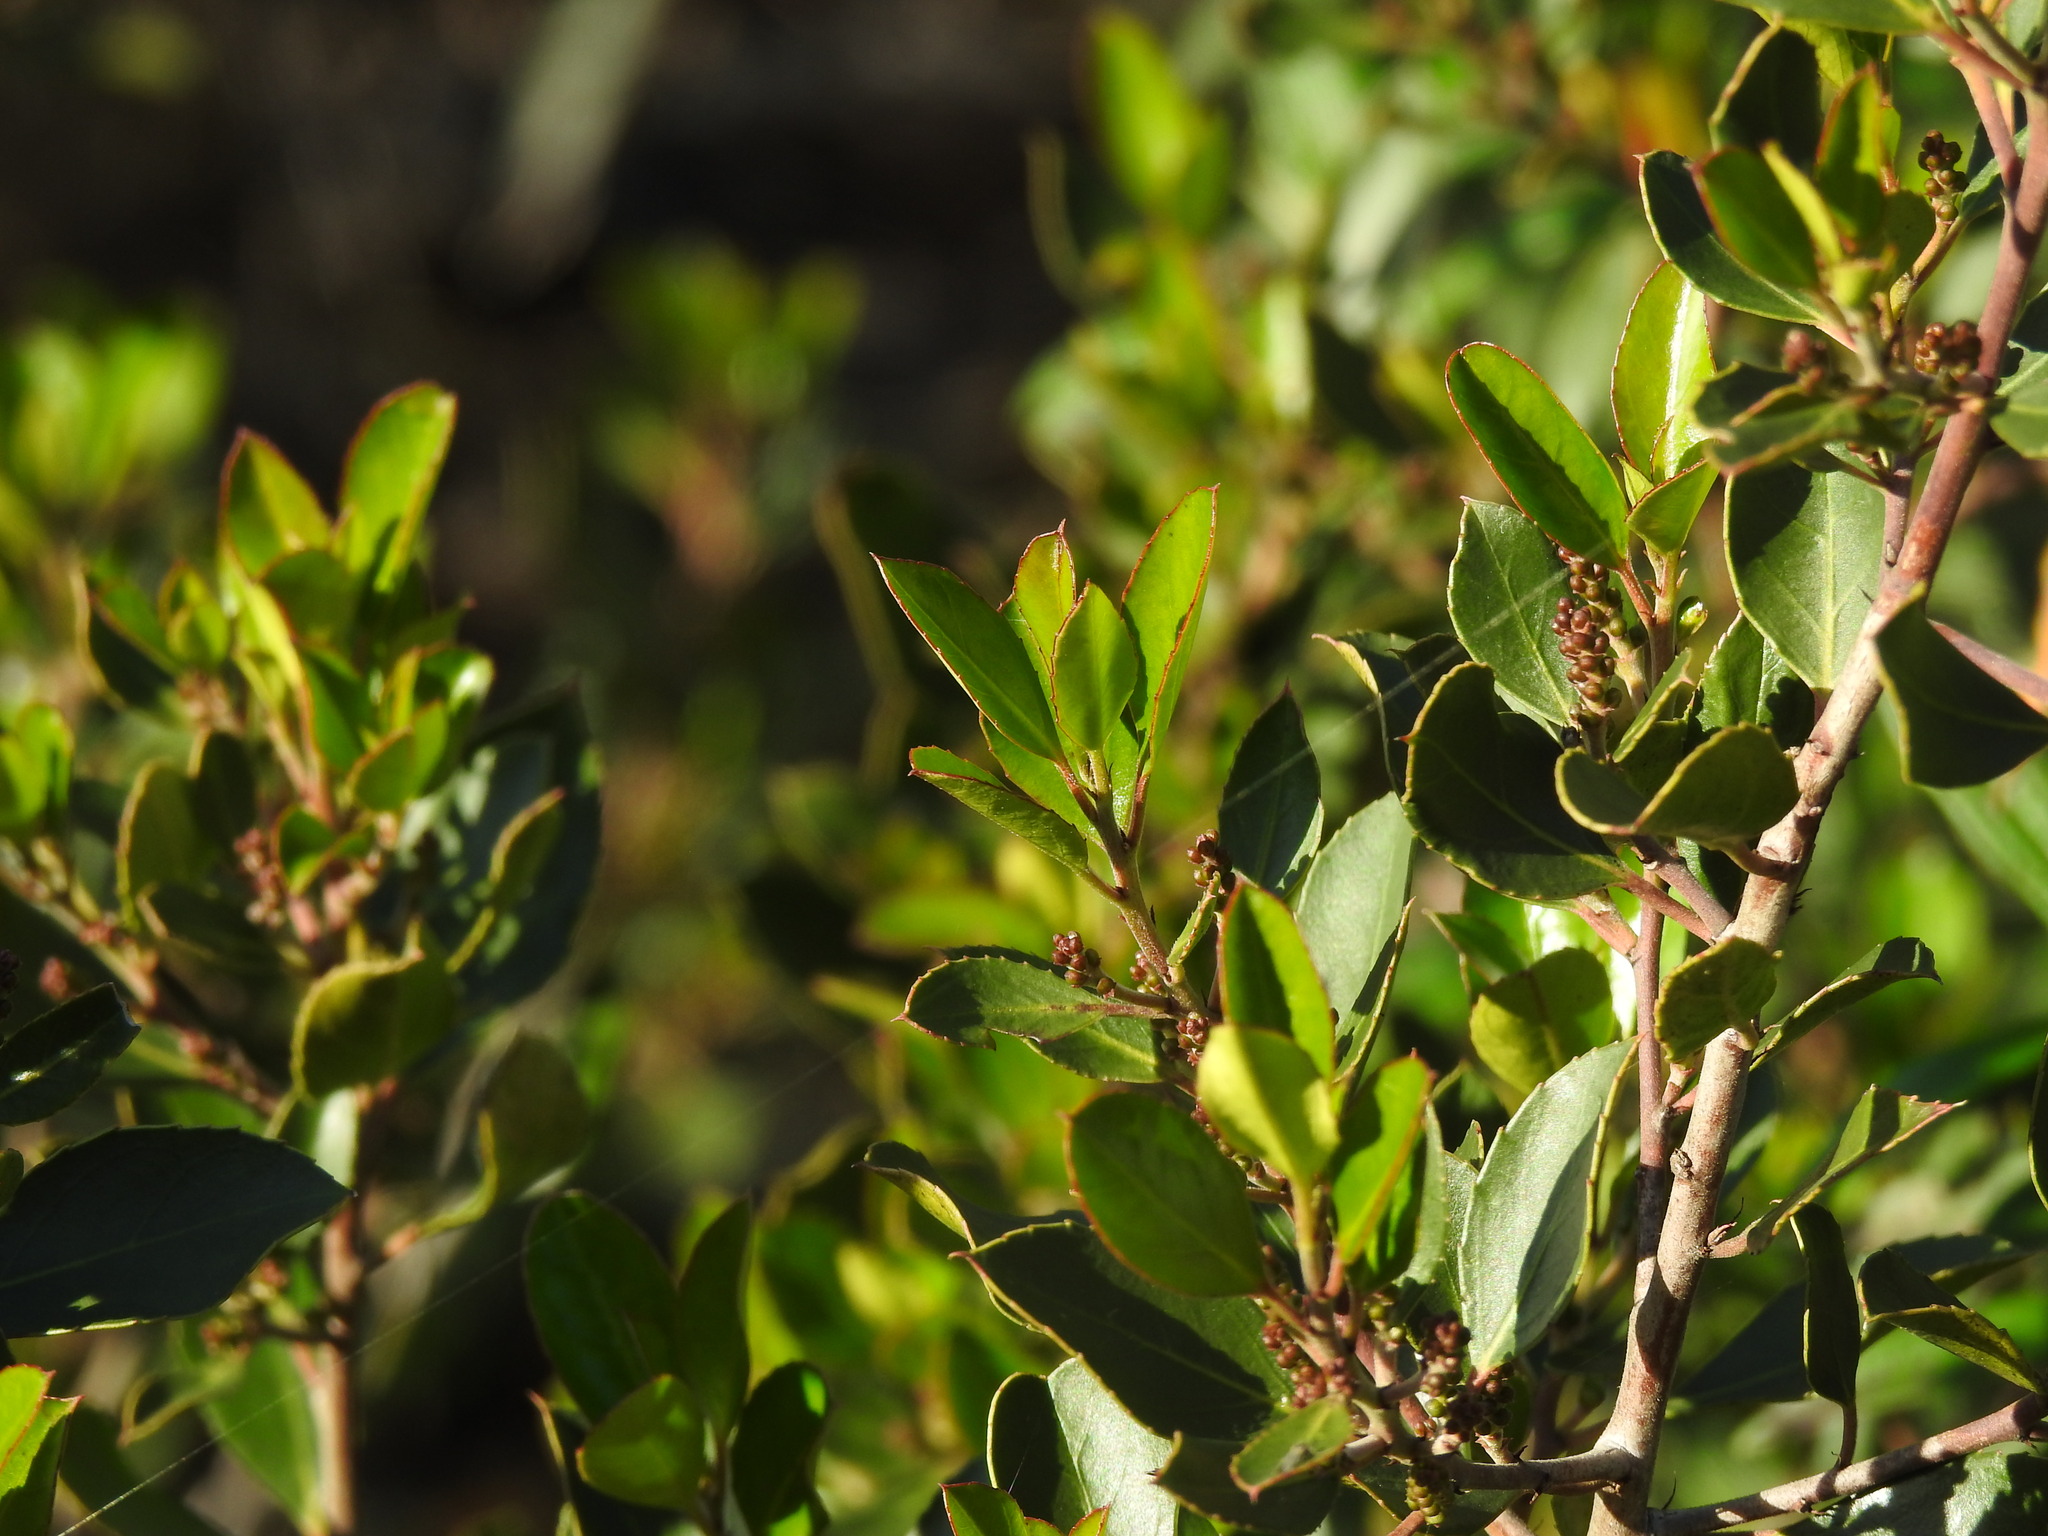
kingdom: Plantae
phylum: Tracheophyta
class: Magnoliopsida
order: Rosales
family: Rhamnaceae
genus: Rhamnus
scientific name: Rhamnus alaternus
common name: Mediterranean buckthorn
